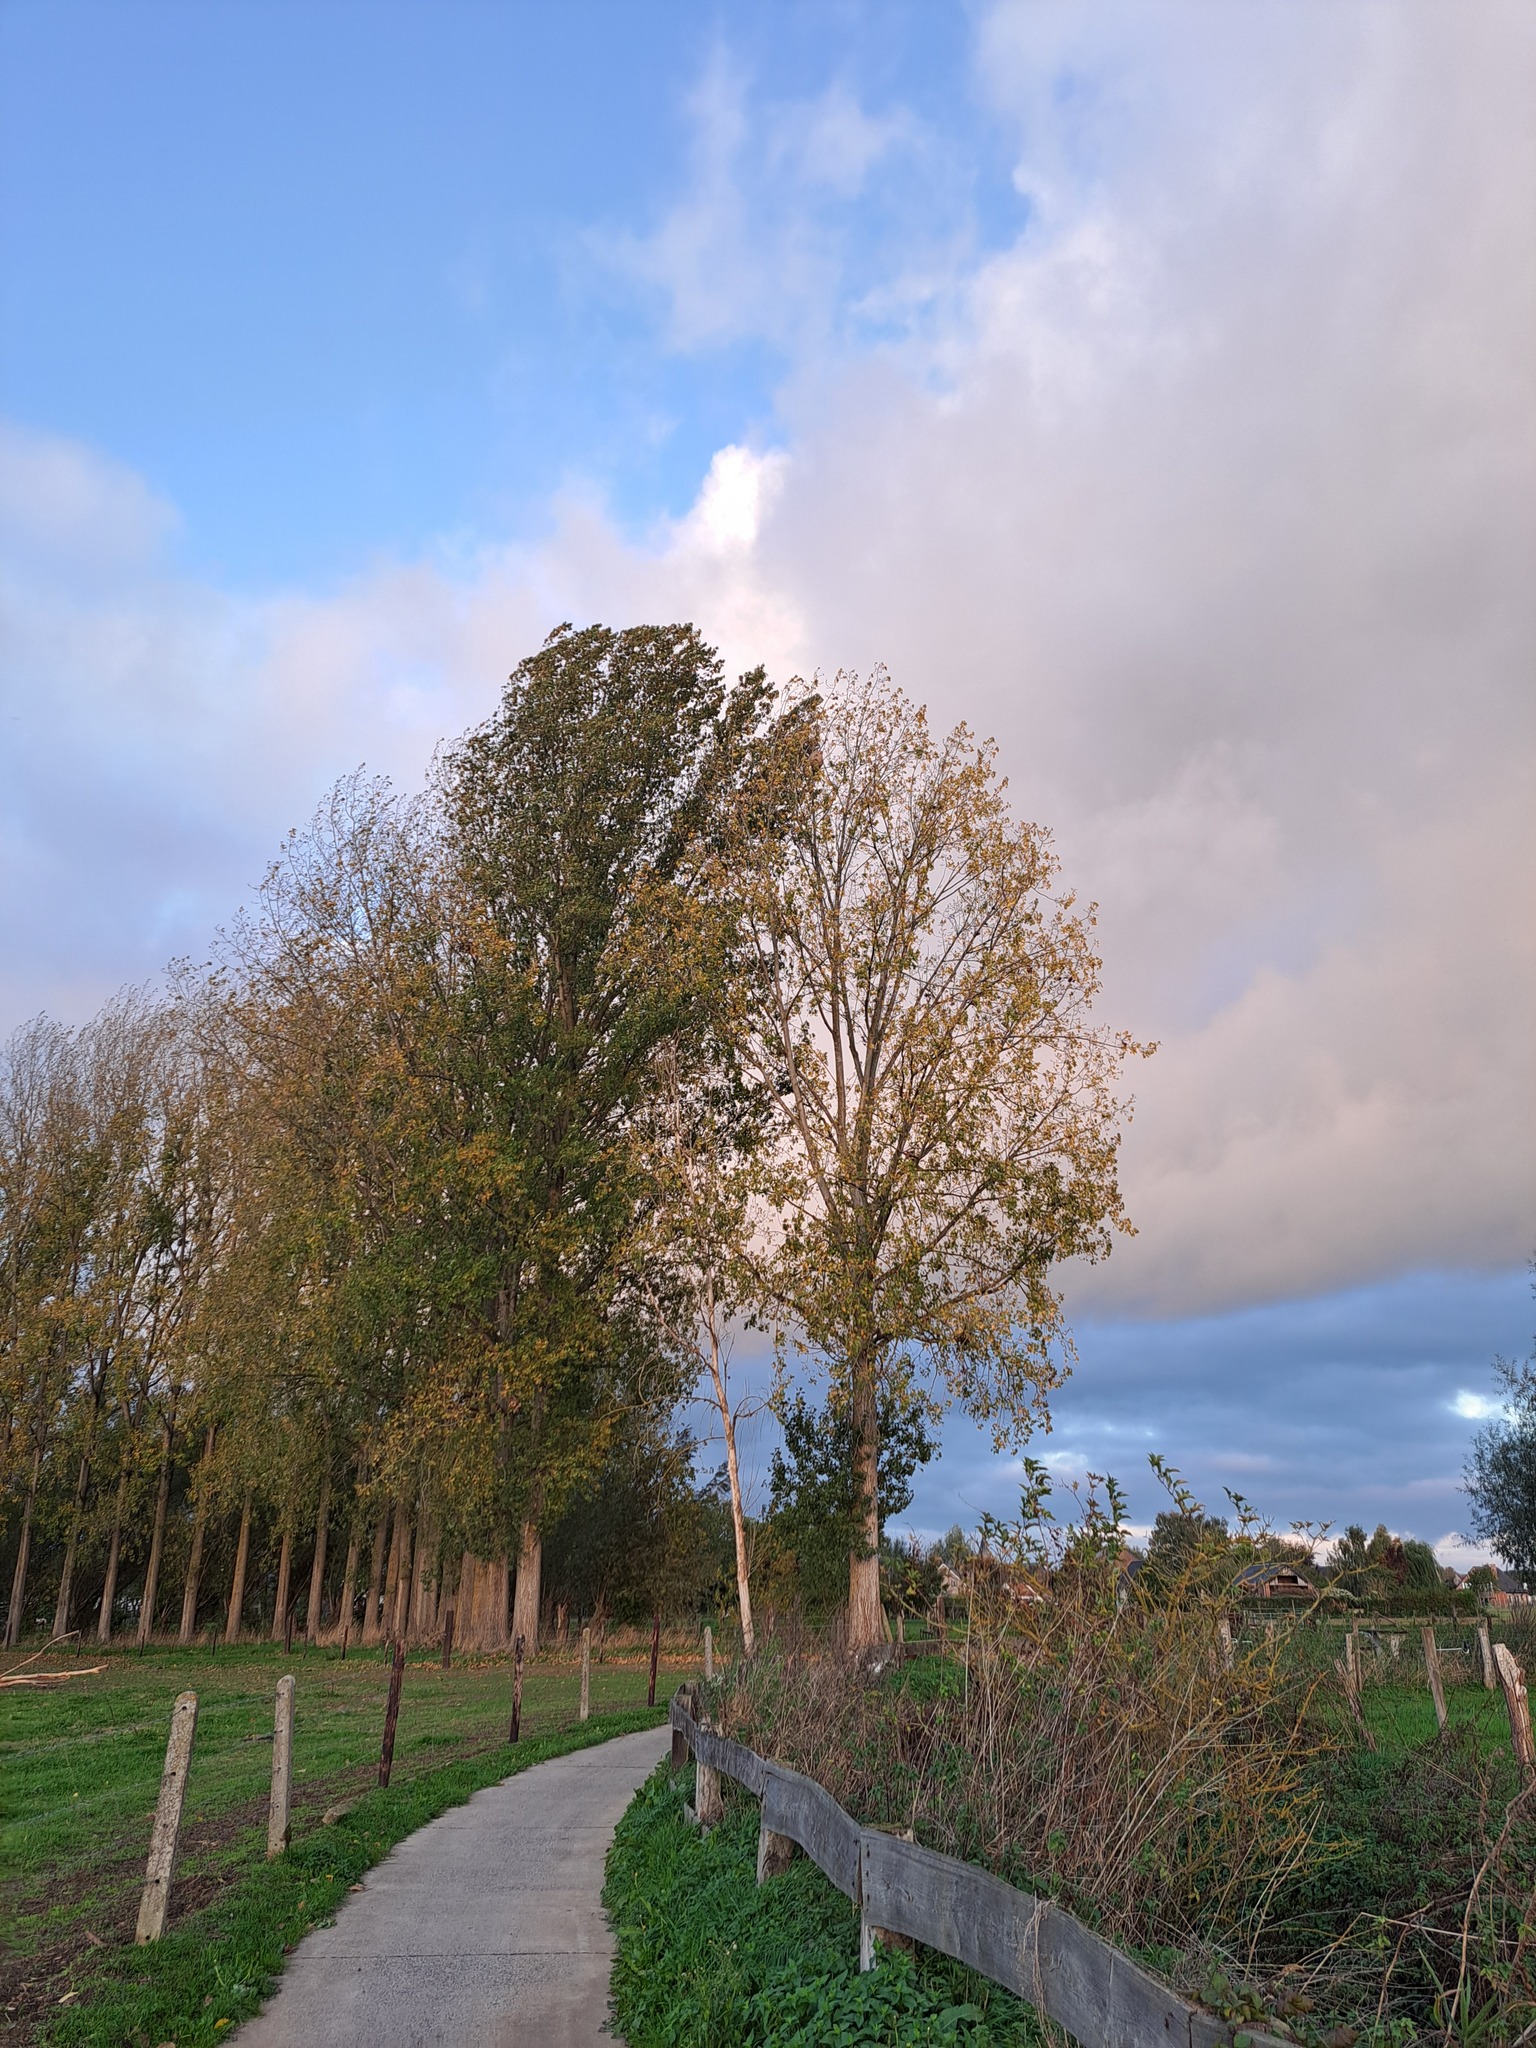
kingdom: Animalia
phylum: Arthropoda
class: Insecta
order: Hymenoptera
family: Vespidae
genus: Vespa
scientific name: Vespa velutina
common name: Asian hornet
